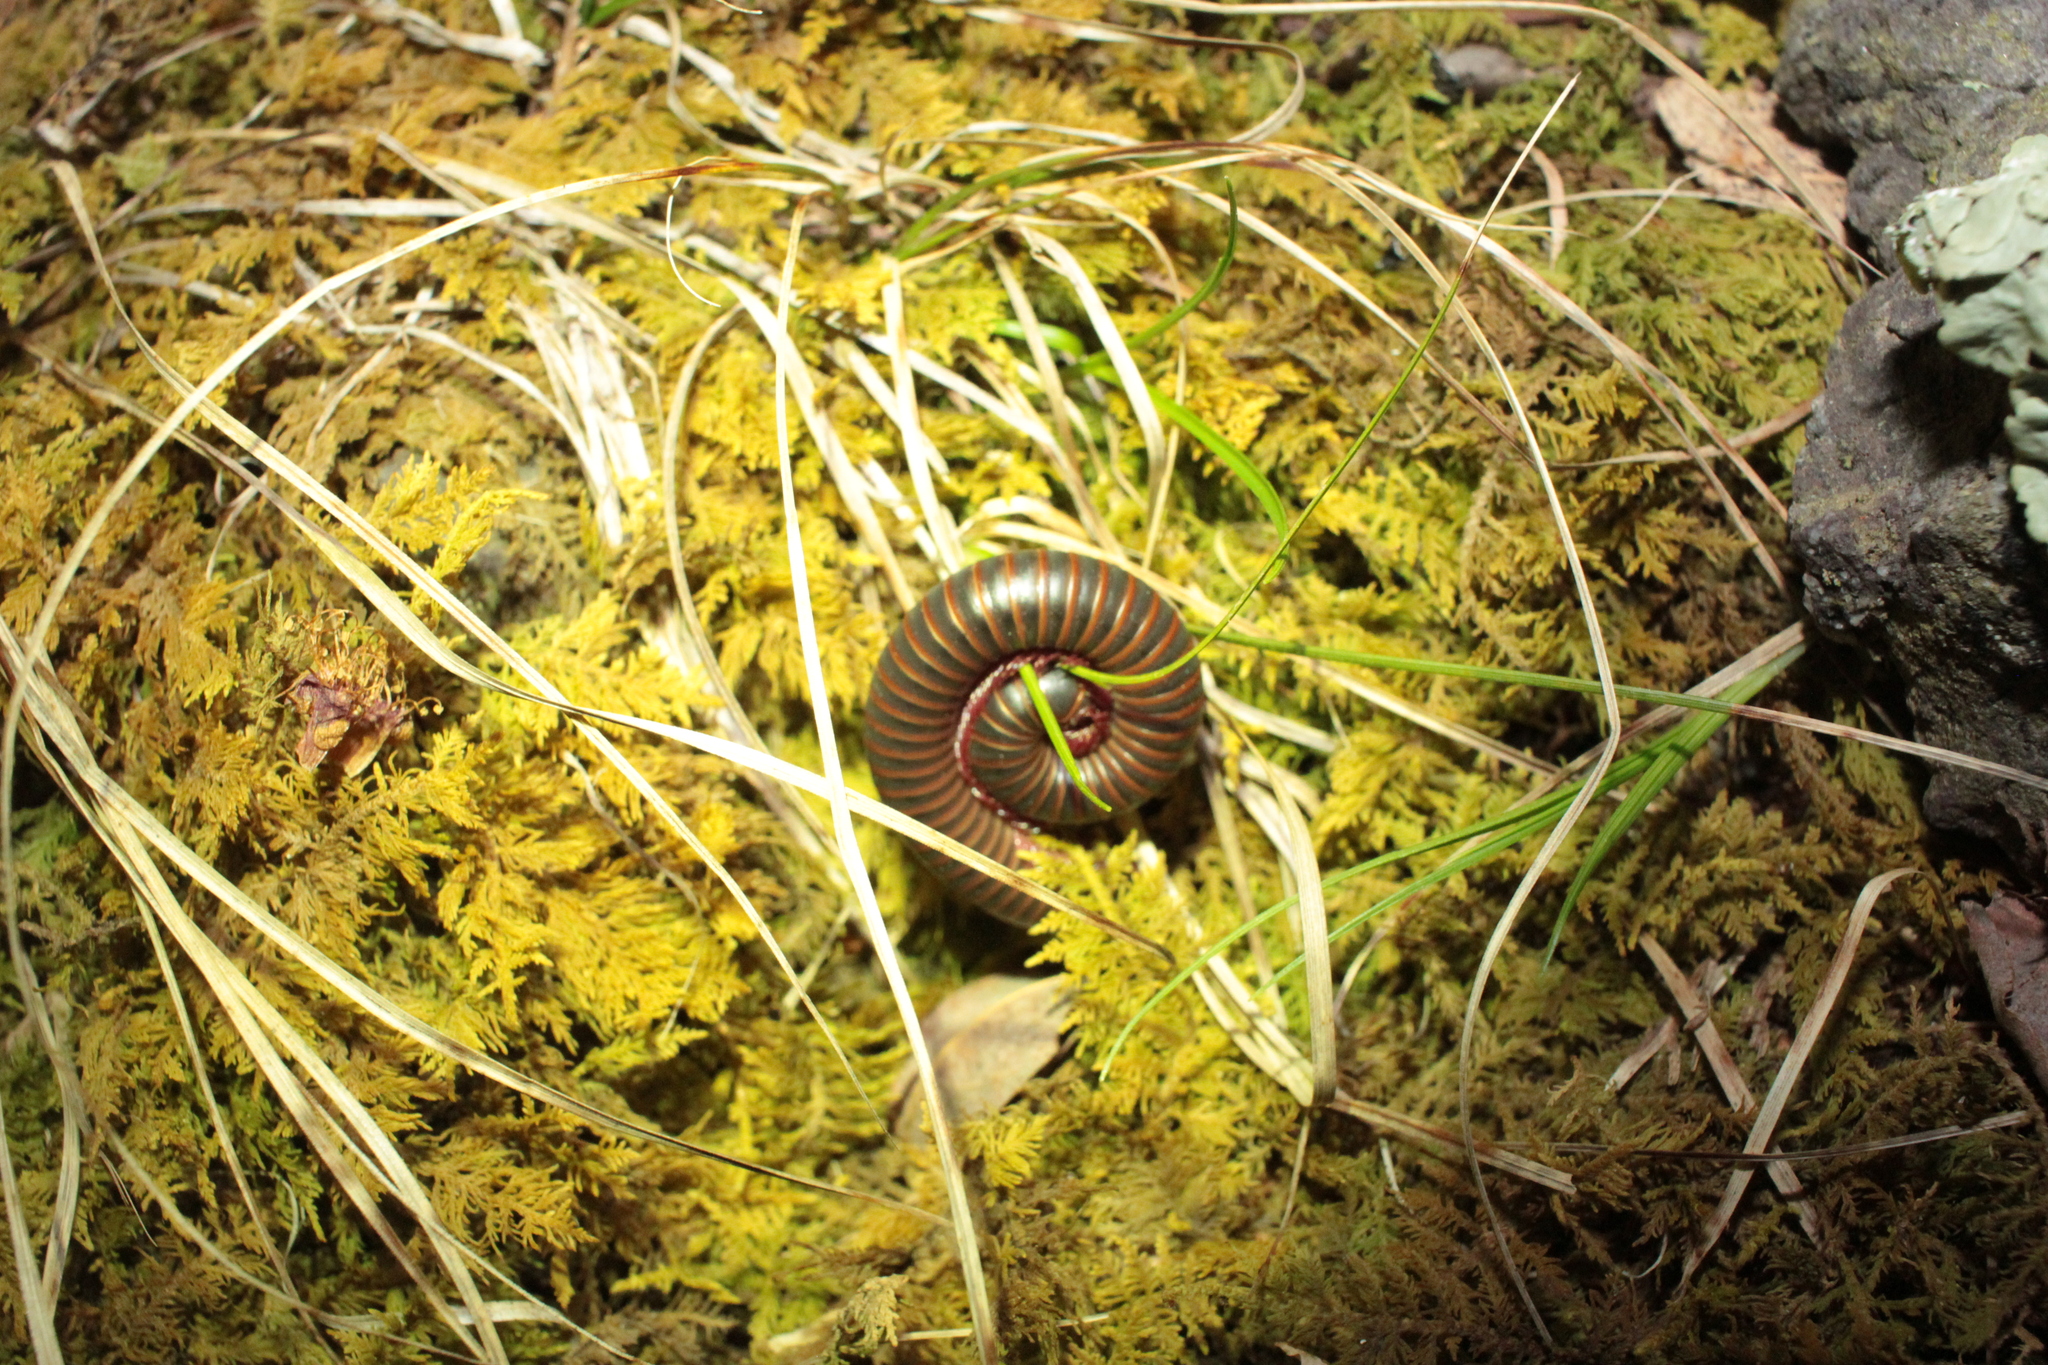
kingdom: Animalia
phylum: Arthropoda
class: Diplopoda
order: Spirobolida
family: Spirobolidae
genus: Narceus
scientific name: Narceus
